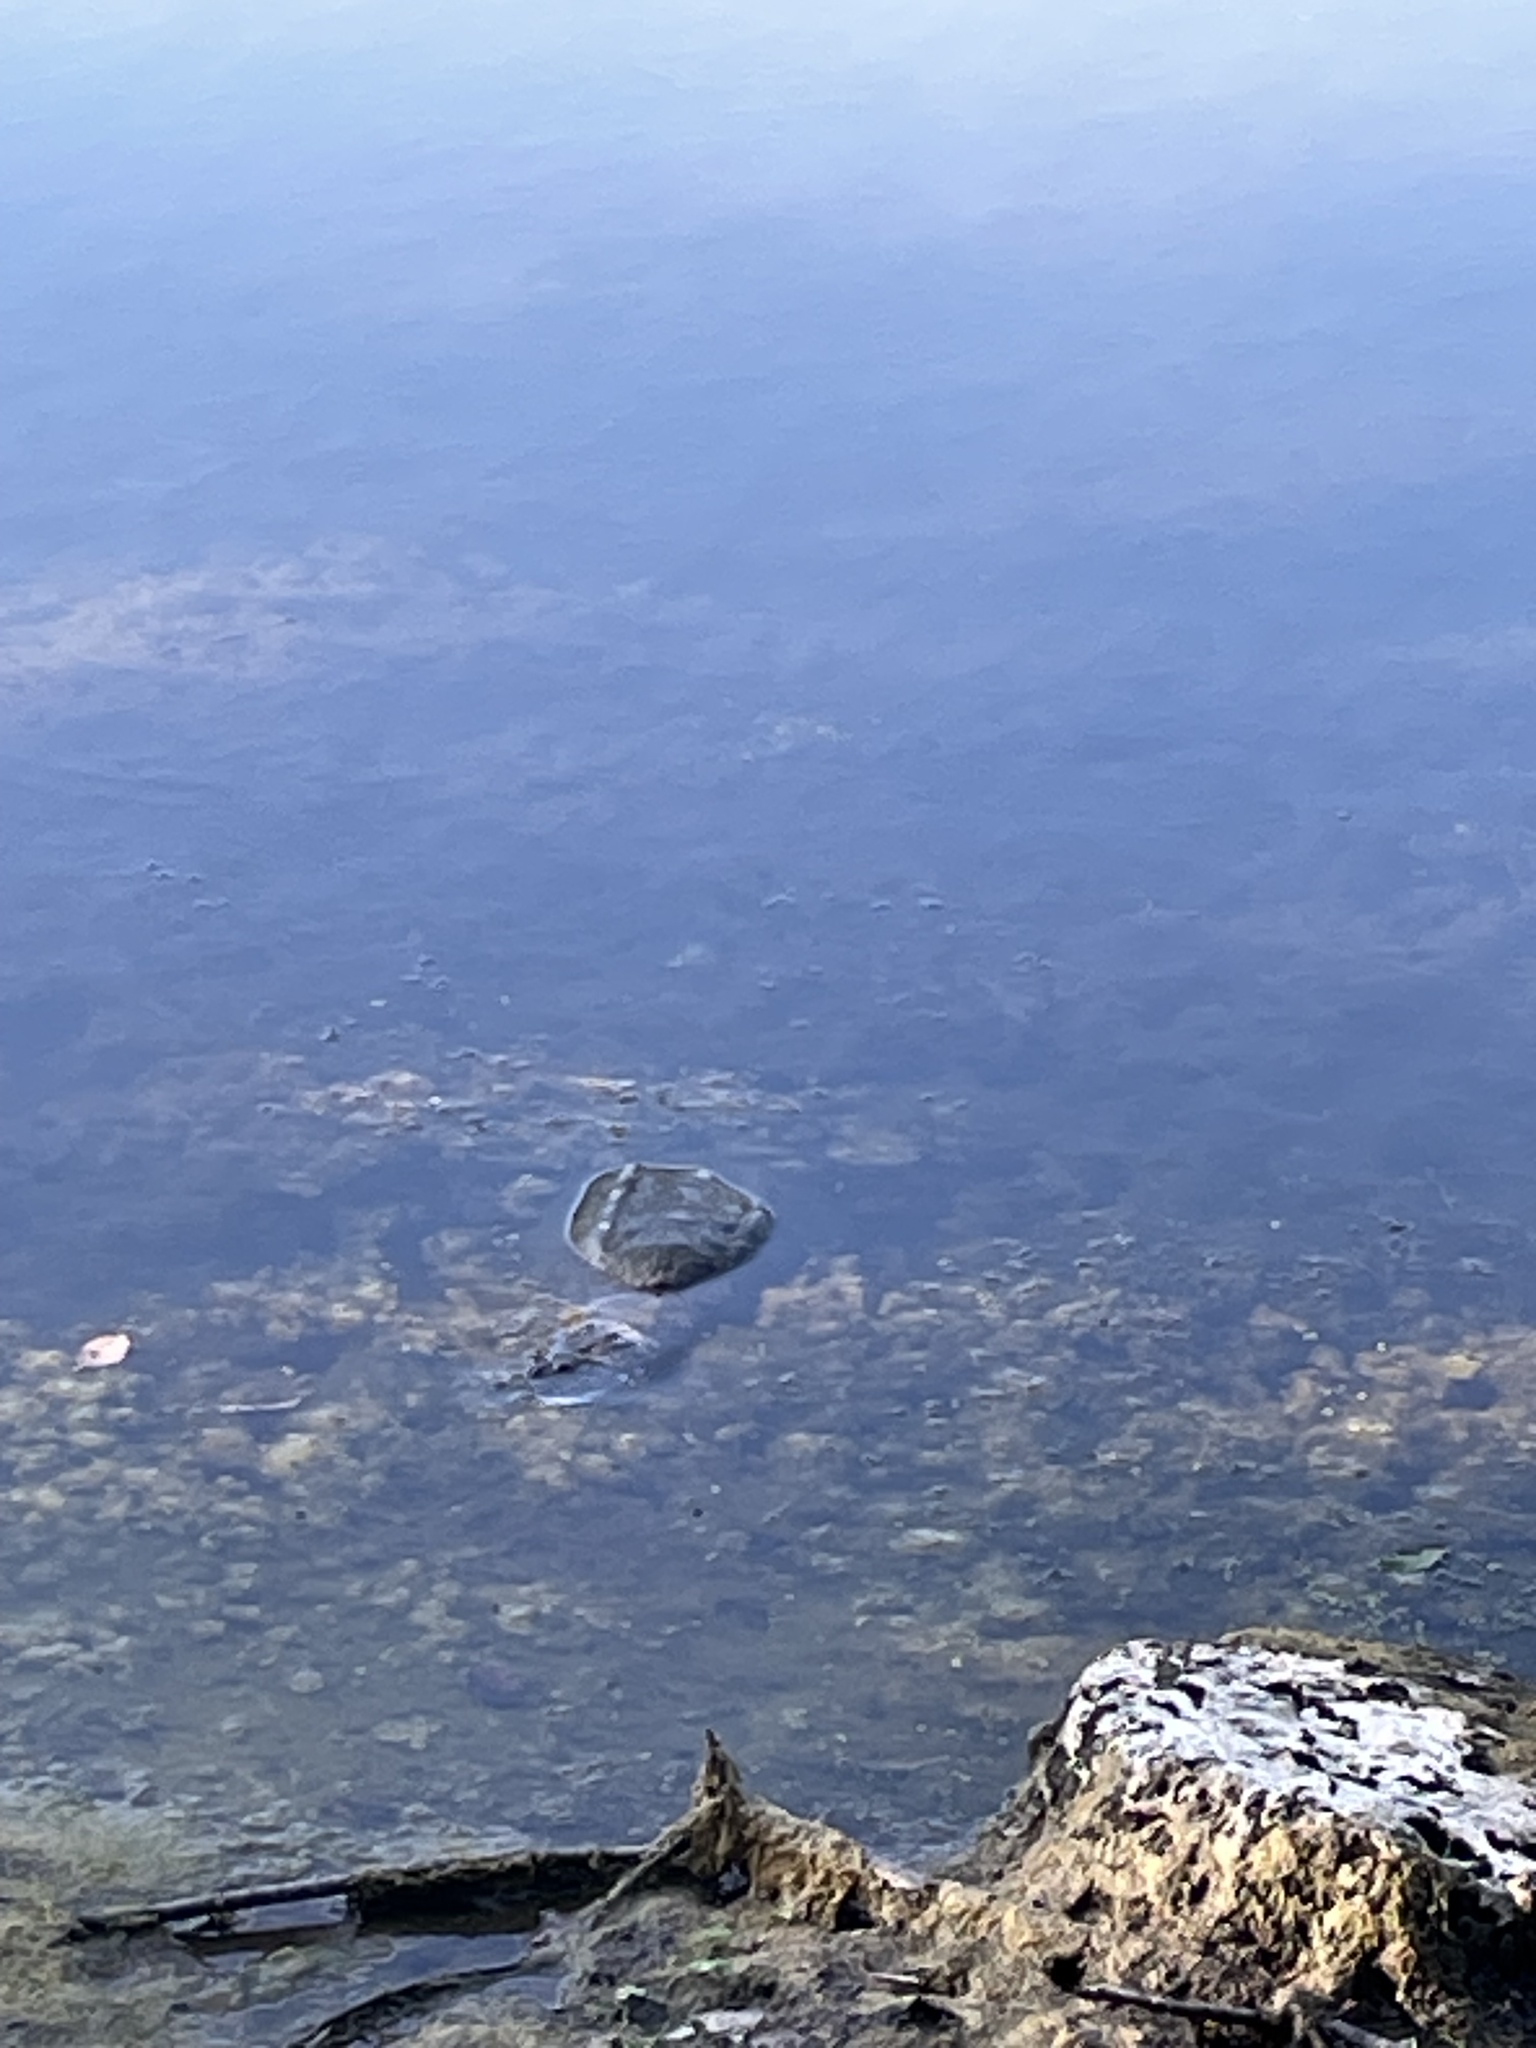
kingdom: Animalia
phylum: Chordata
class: Testudines
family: Chelydridae
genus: Chelydra
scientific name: Chelydra serpentina
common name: Common snapping turtle
